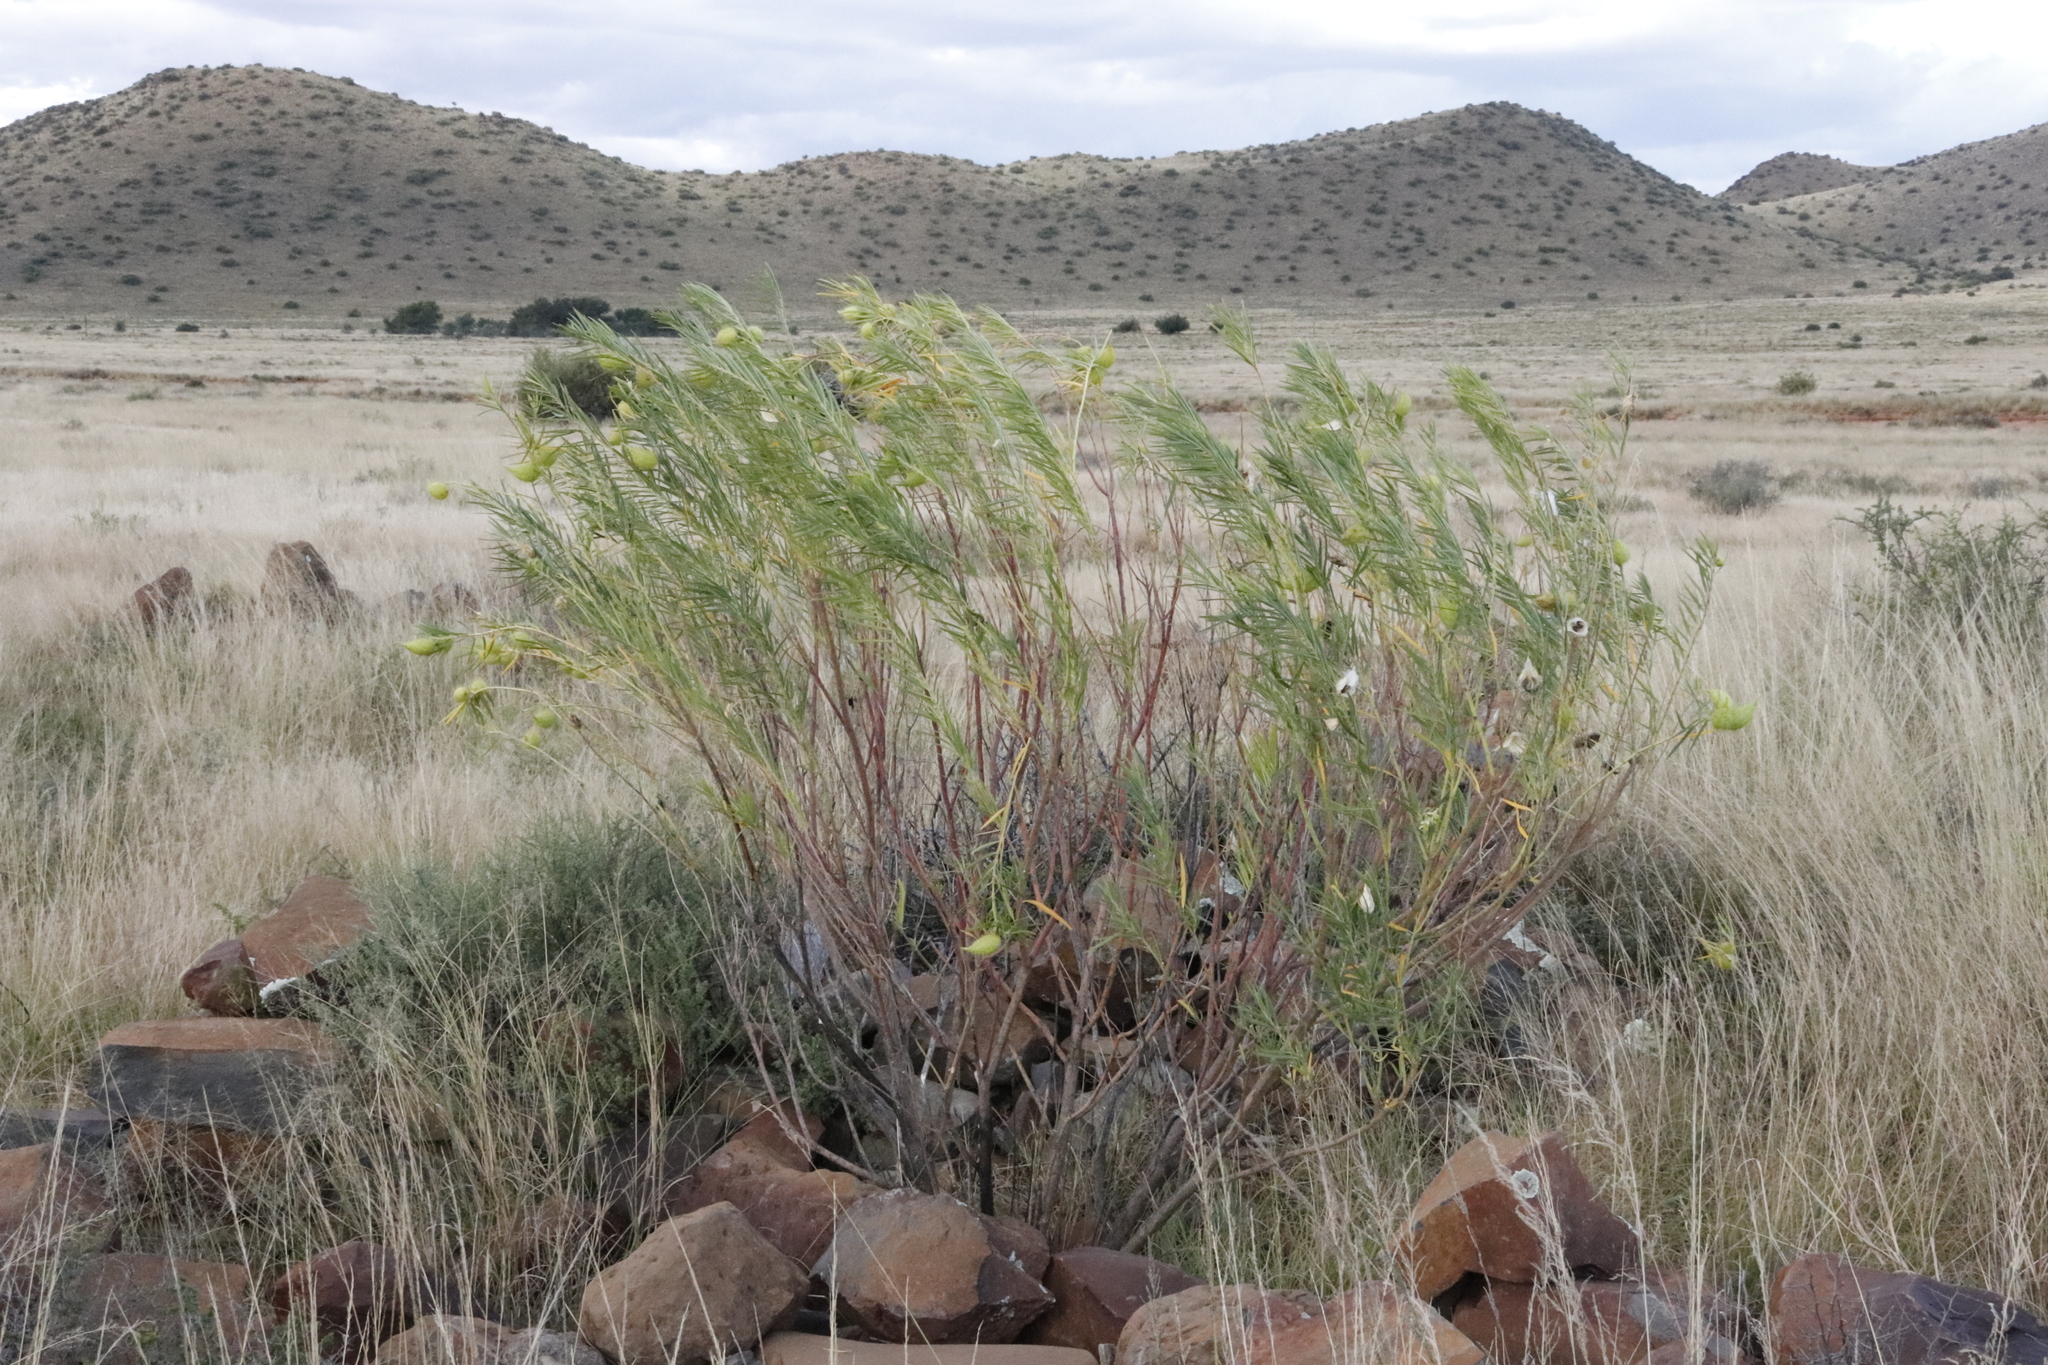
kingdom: Plantae
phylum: Tracheophyta
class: Magnoliopsida
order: Gentianales
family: Apocynaceae
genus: Gomphocarpus
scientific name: Gomphocarpus fruticosus
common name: Milkweed
